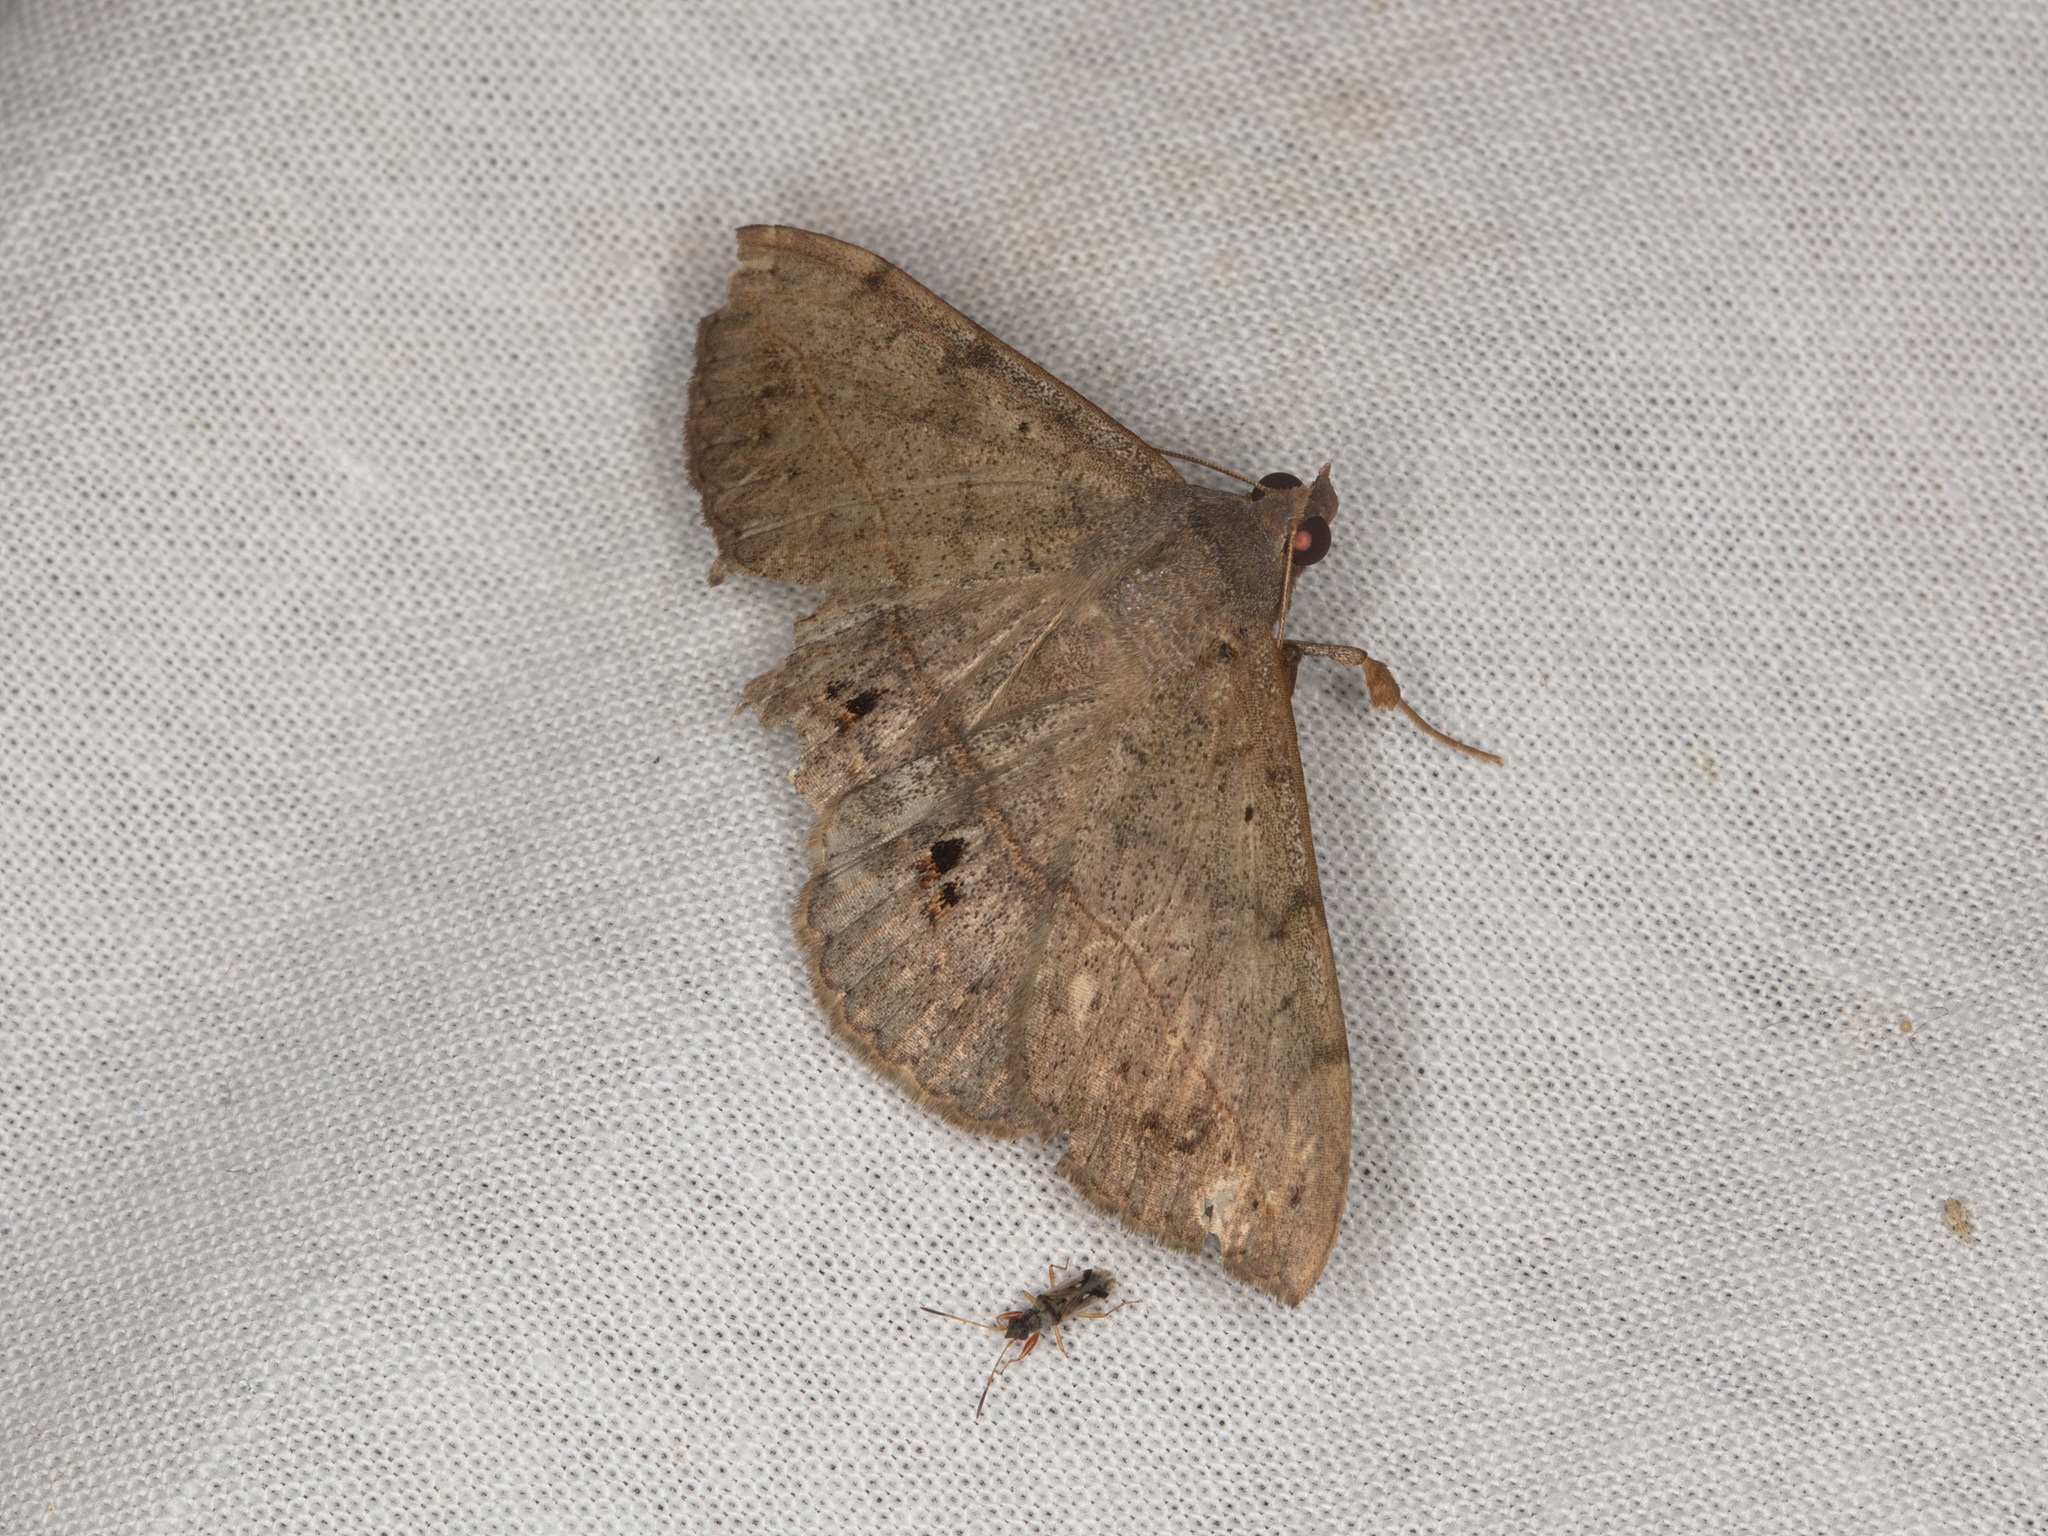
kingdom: Animalia
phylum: Arthropoda
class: Insecta
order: Lepidoptera
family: Erebidae
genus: Anticarsia
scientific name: Anticarsia gemmatalis
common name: Cutworm moth
